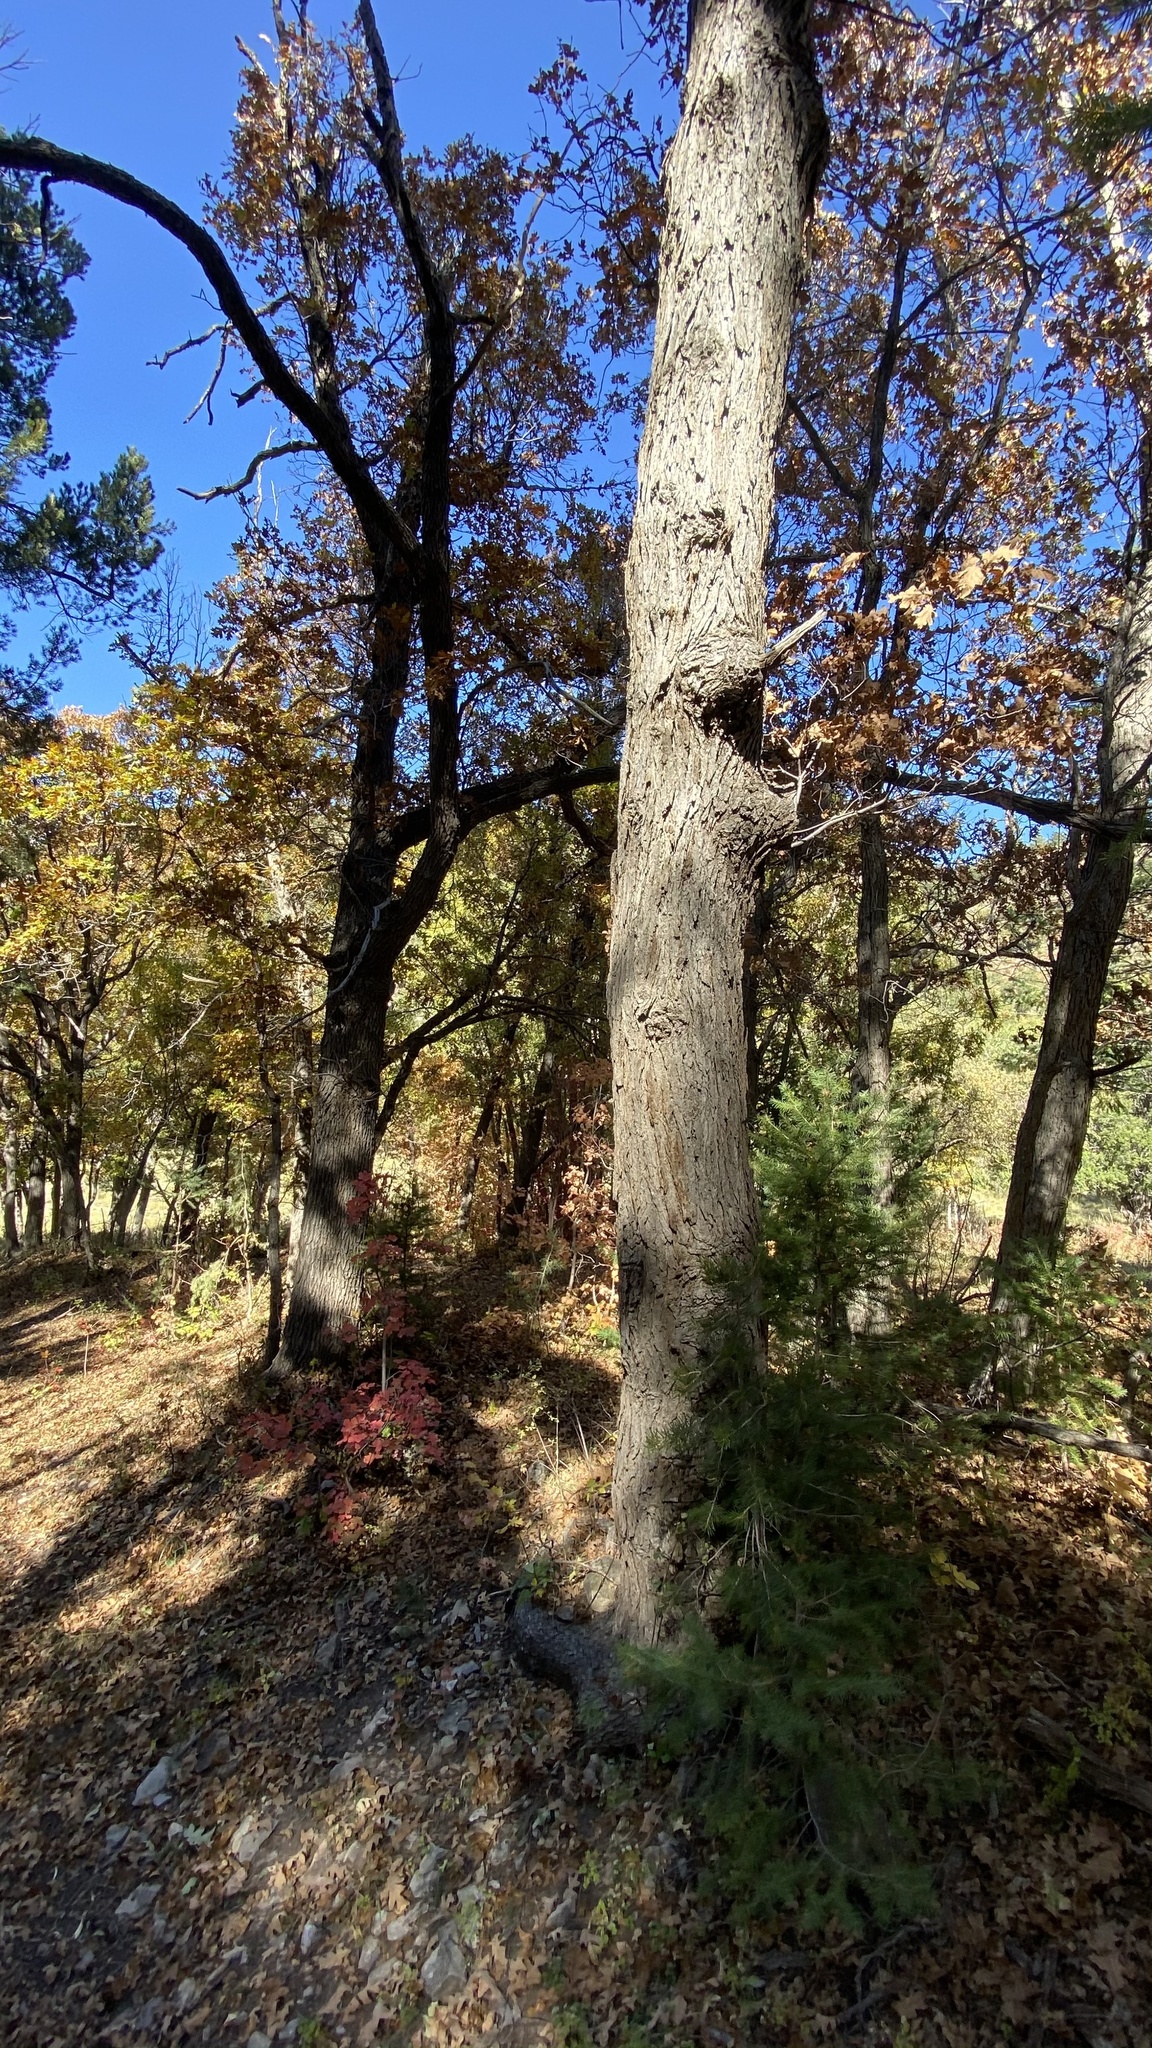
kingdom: Plantae
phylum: Tracheophyta
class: Magnoliopsida
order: Fagales
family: Fagaceae
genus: Quercus
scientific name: Quercus gambelii
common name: Gambel oak
